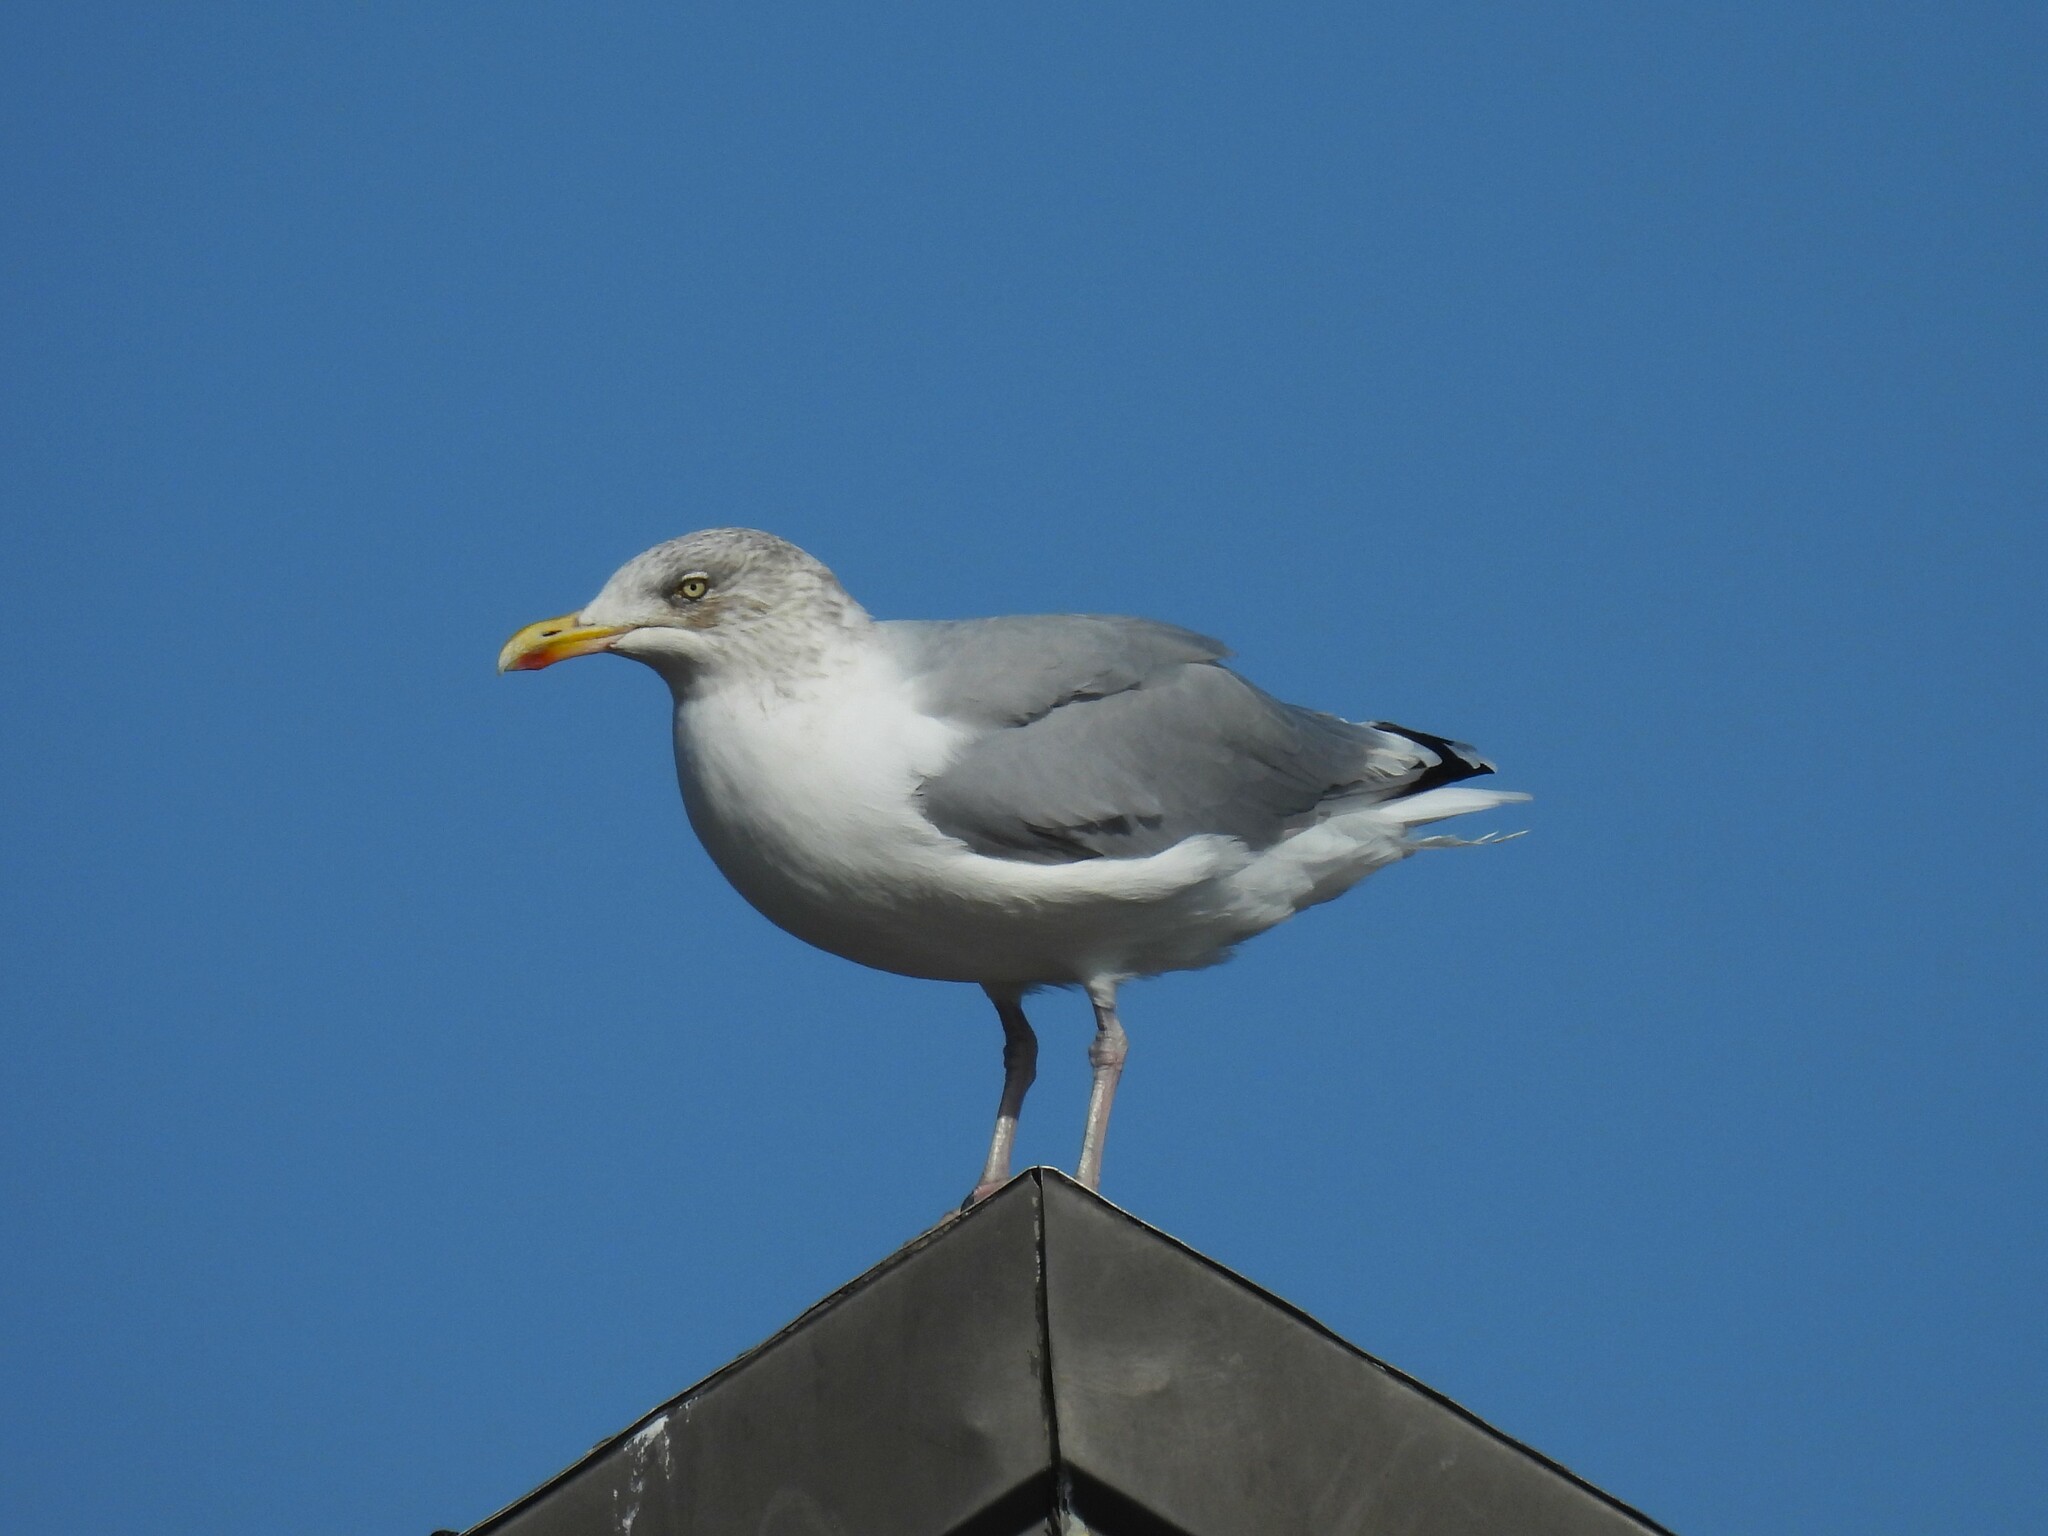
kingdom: Animalia
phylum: Chordata
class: Aves
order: Charadriiformes
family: Laridae
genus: Larus
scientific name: Larus argentatus
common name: Herring gull
